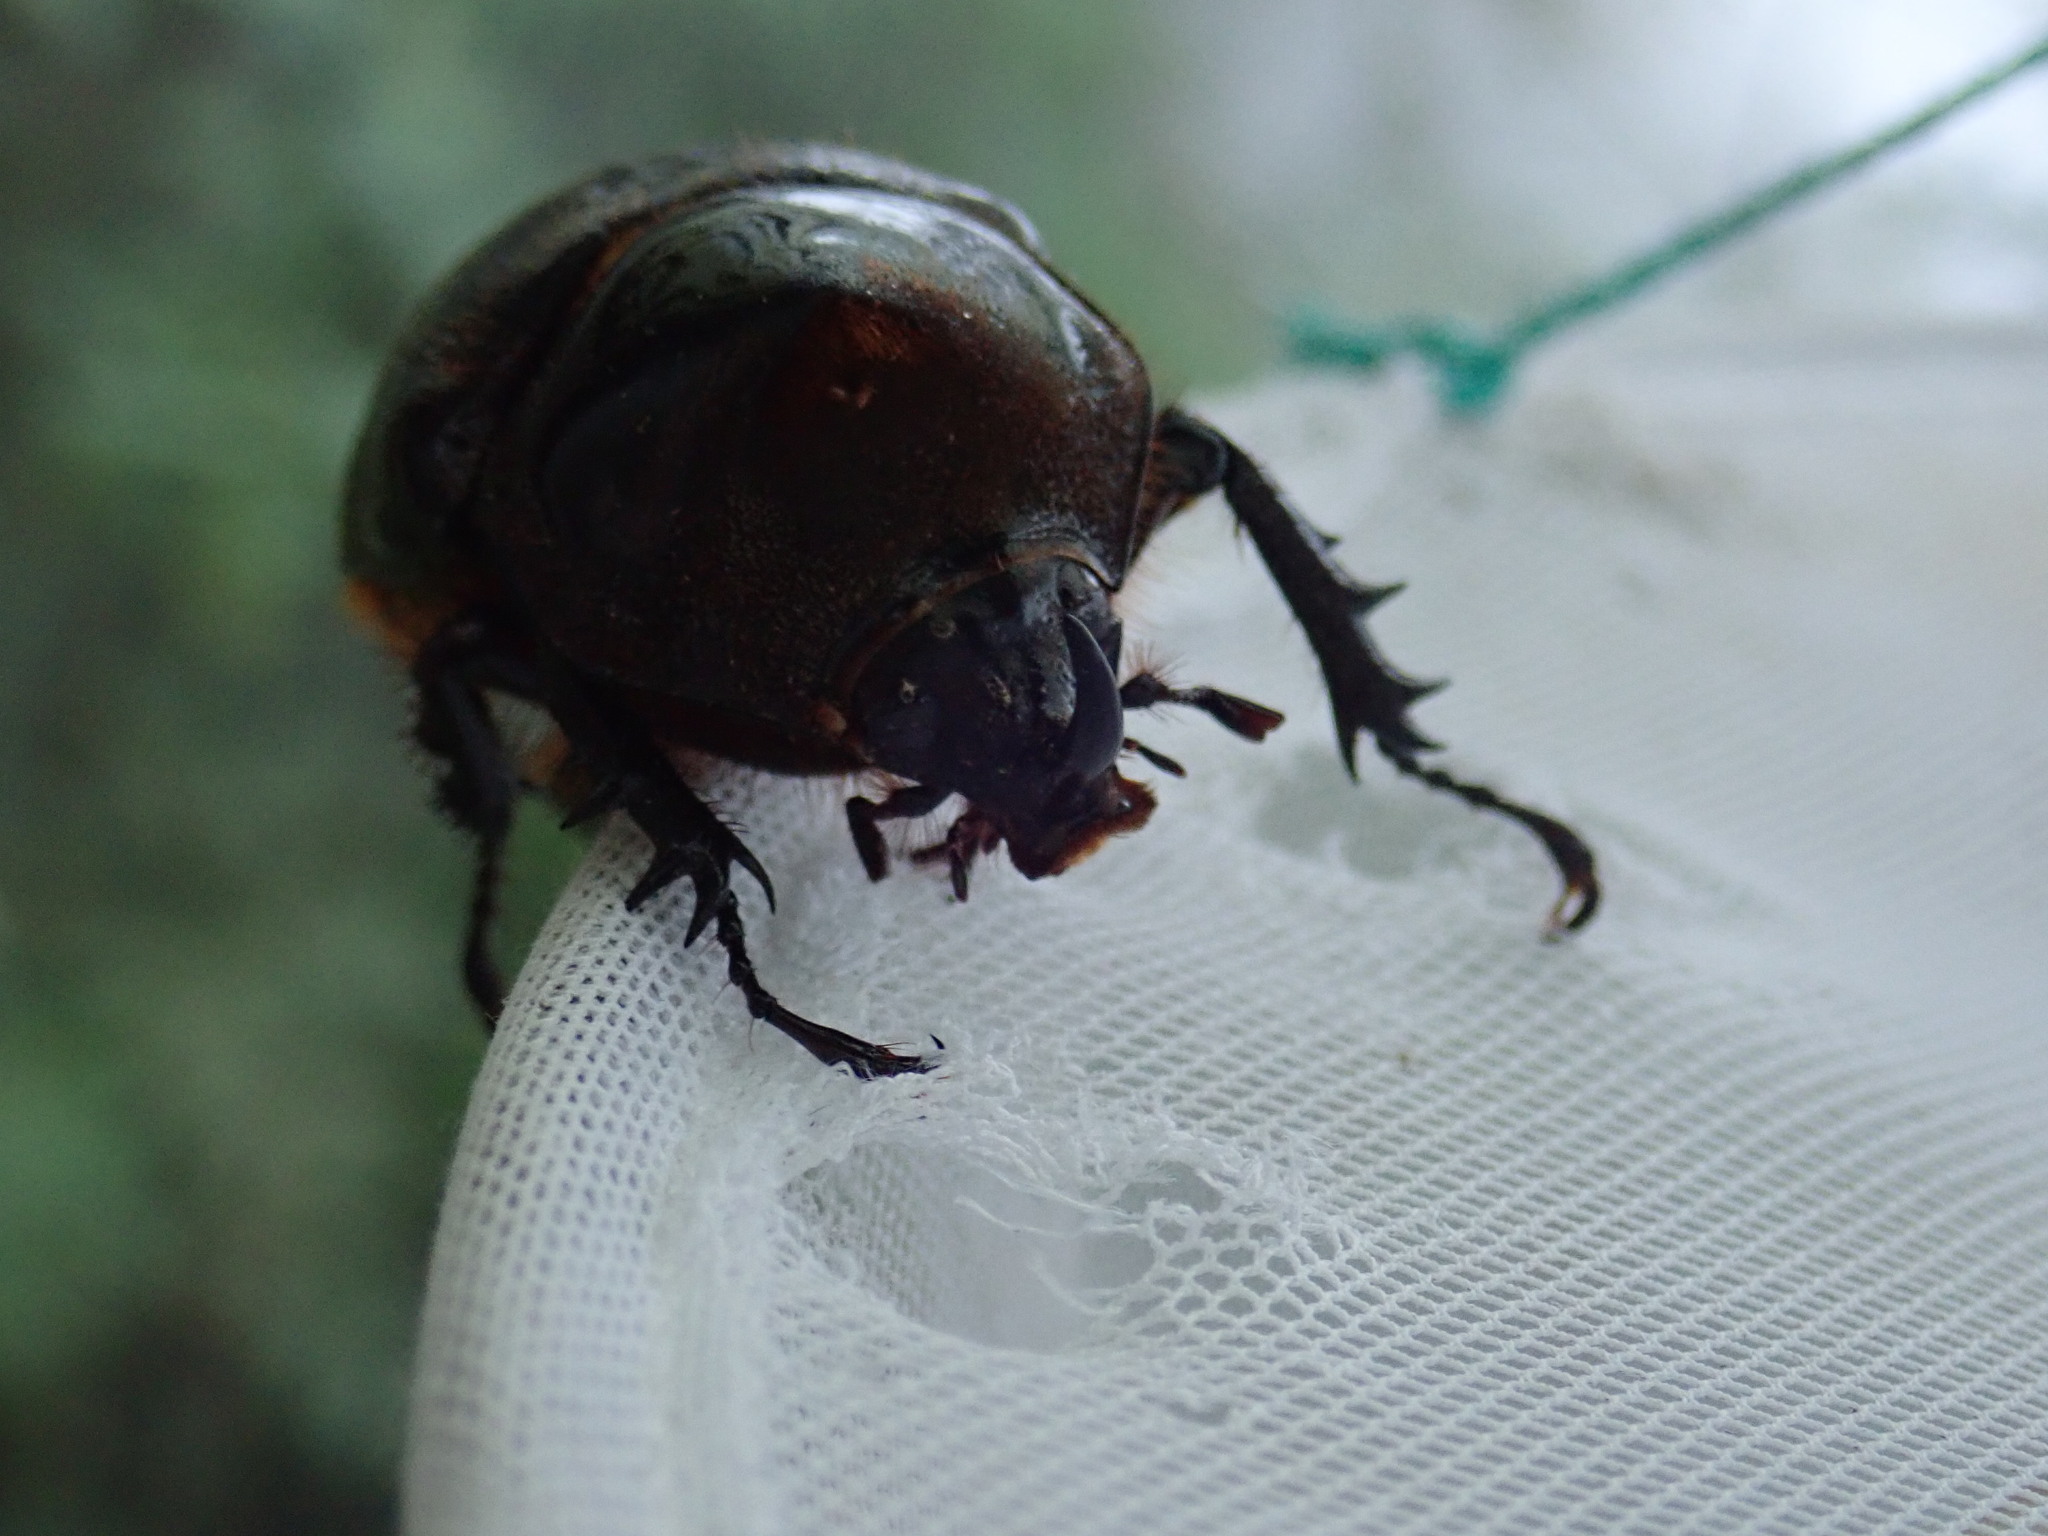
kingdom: Animalia
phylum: Arthropoda
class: Insecta
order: Coleoptera
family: Scarabaeidae
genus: Heterogomphus
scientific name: Heterogomphus schoenherri
